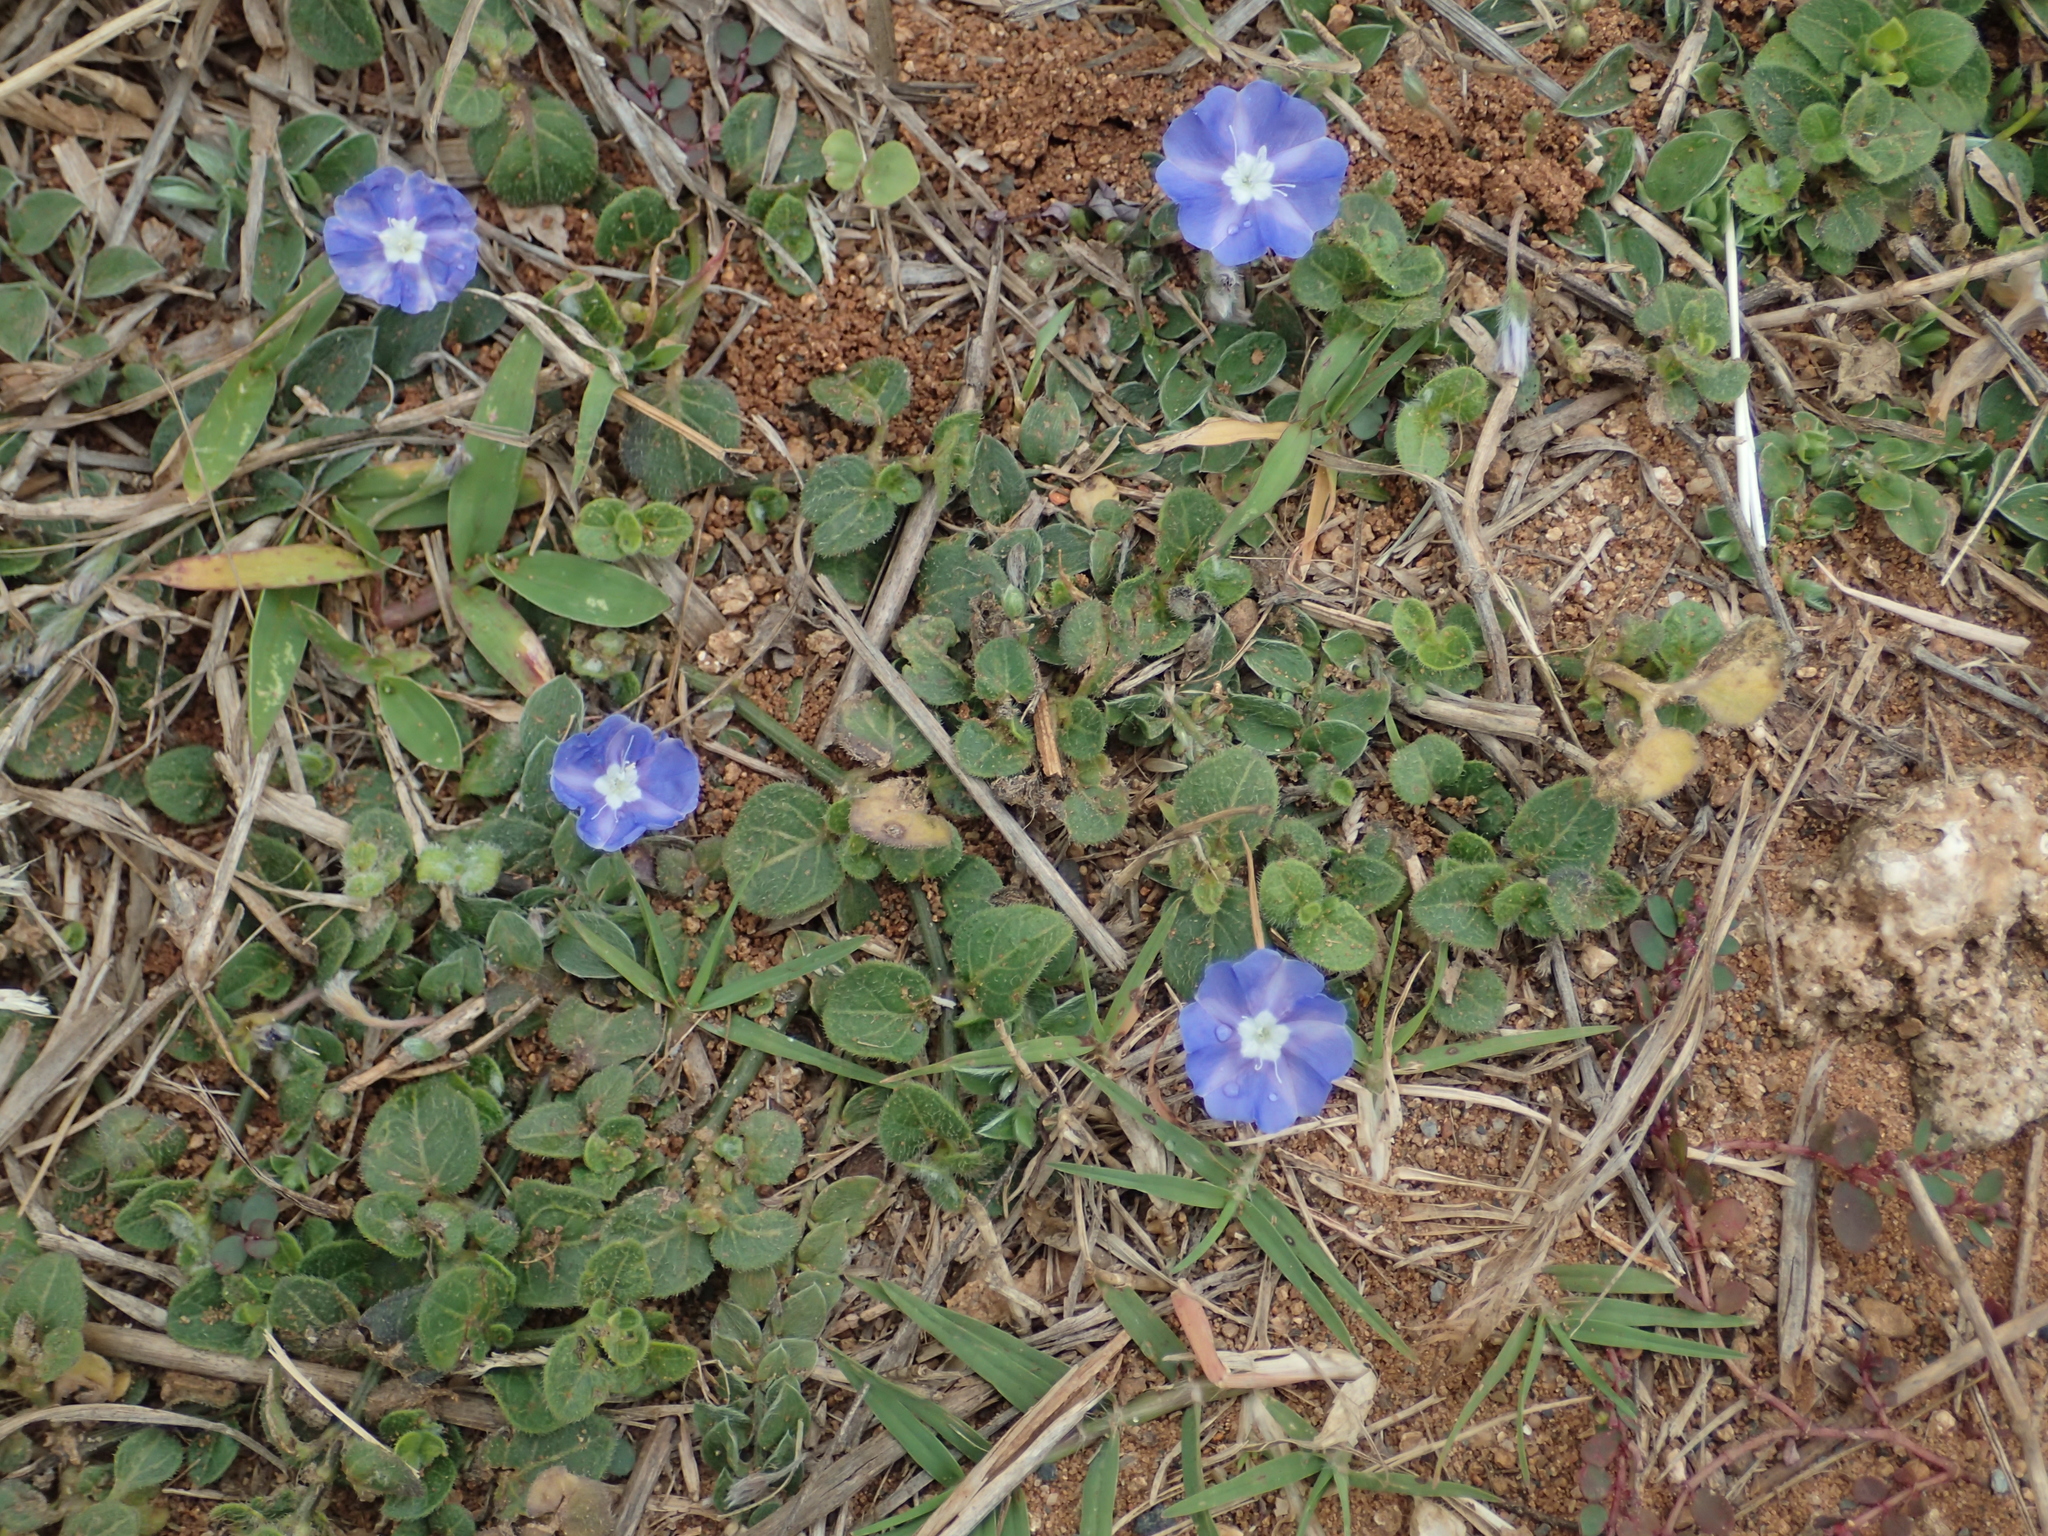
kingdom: Plantae
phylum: Tracheophyta
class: Magnoliopsida
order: Solanales
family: Convolvulaceae
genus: Evolvulus
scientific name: Evolvulus alsinoides
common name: Slender dwarf morning-glory
